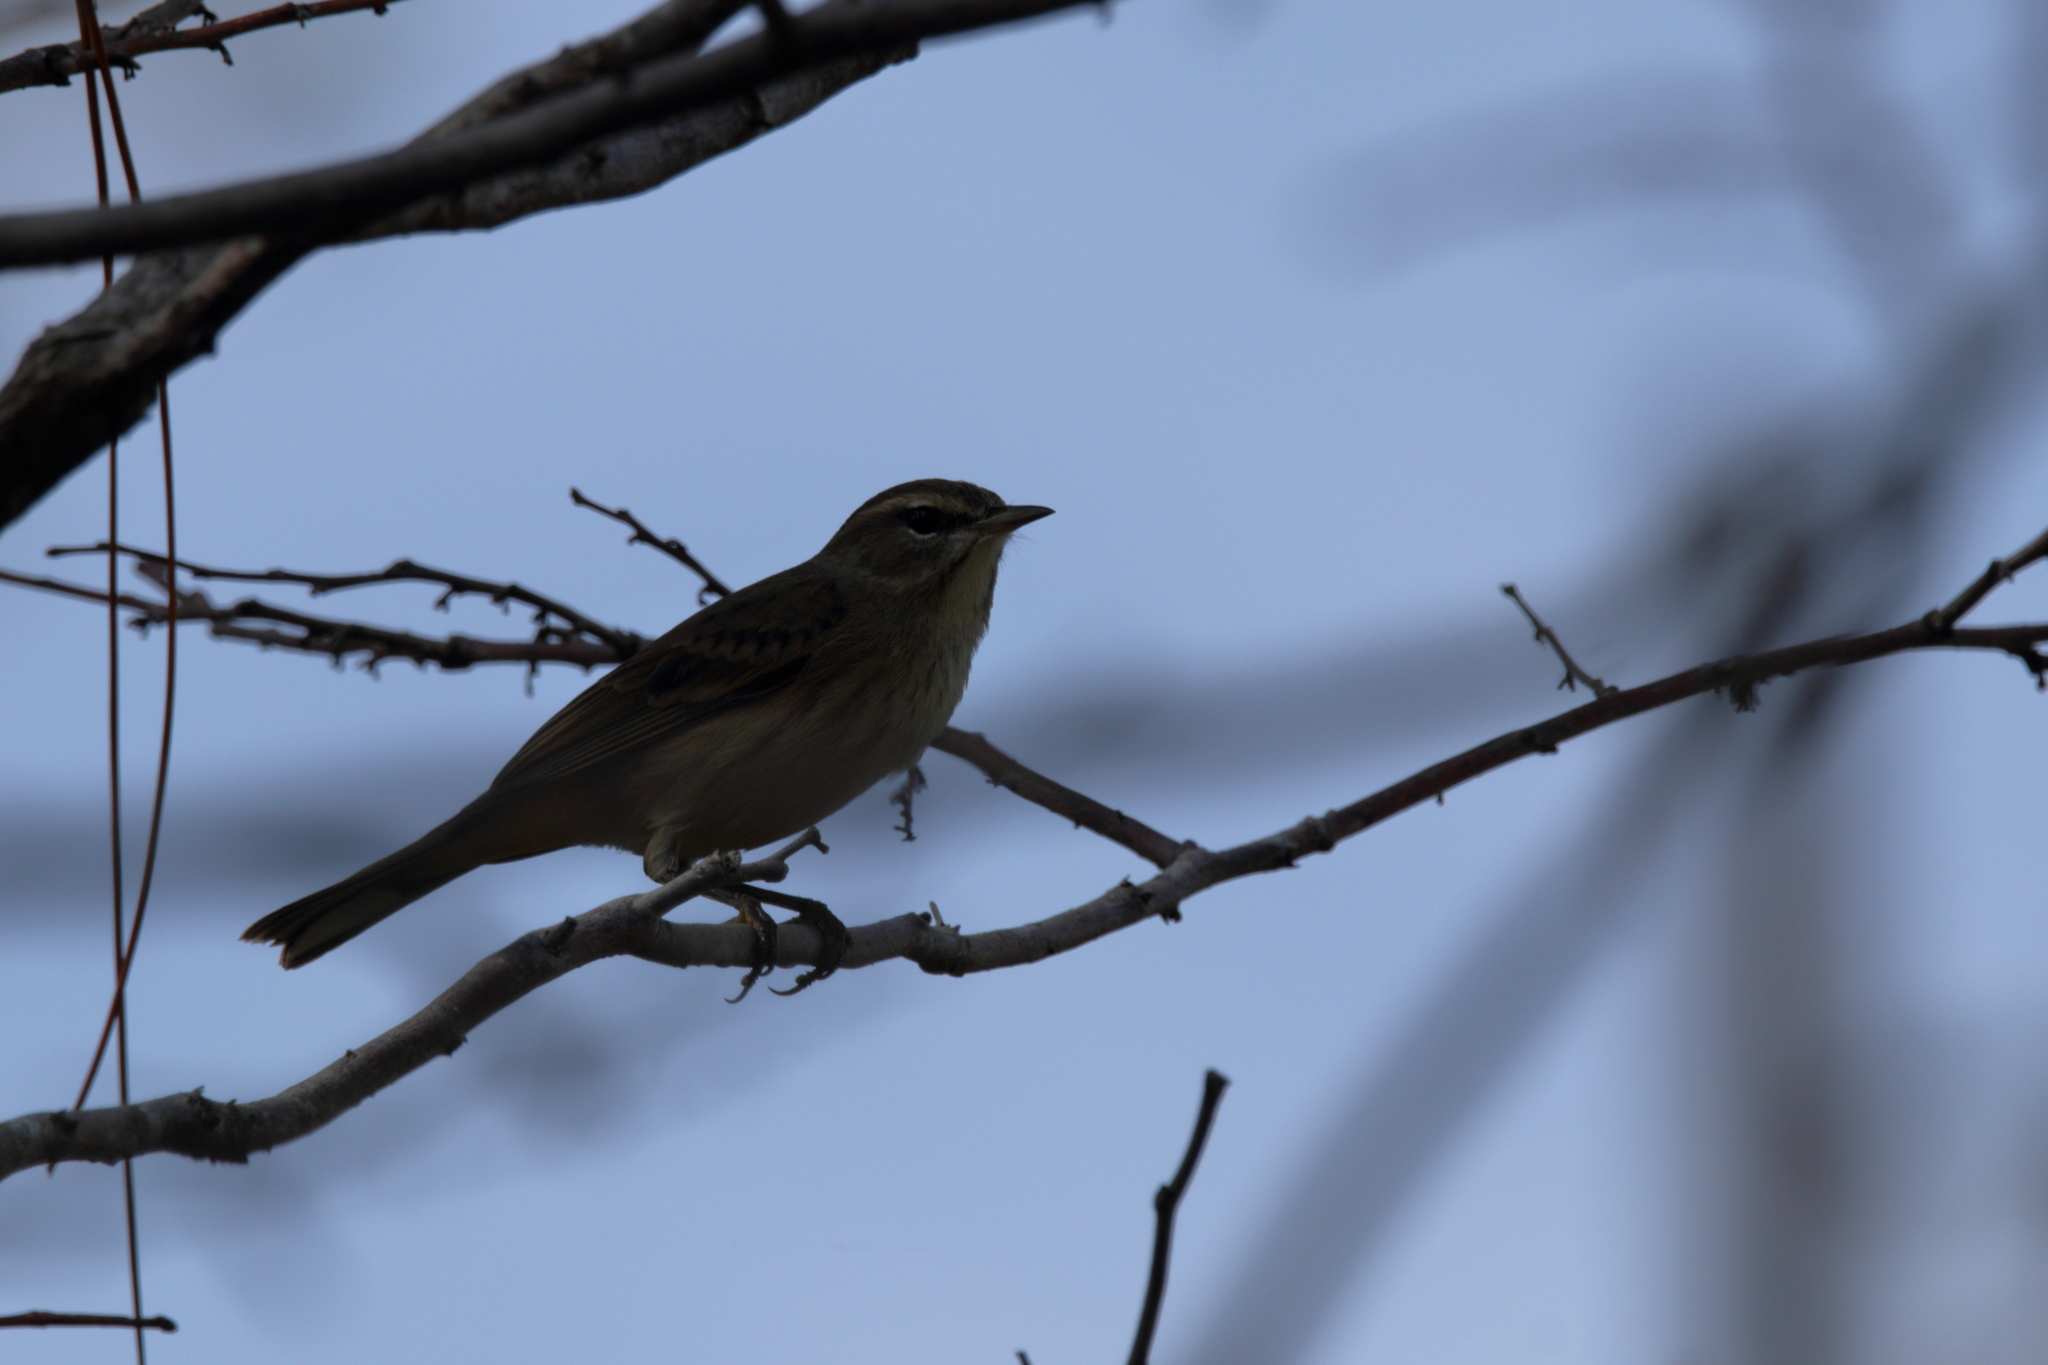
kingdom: Animalia
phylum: Chordata
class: Aves
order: Passeriformes
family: Parulidae
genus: Setophaga
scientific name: Setophaga palmarum
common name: Palm warbler
